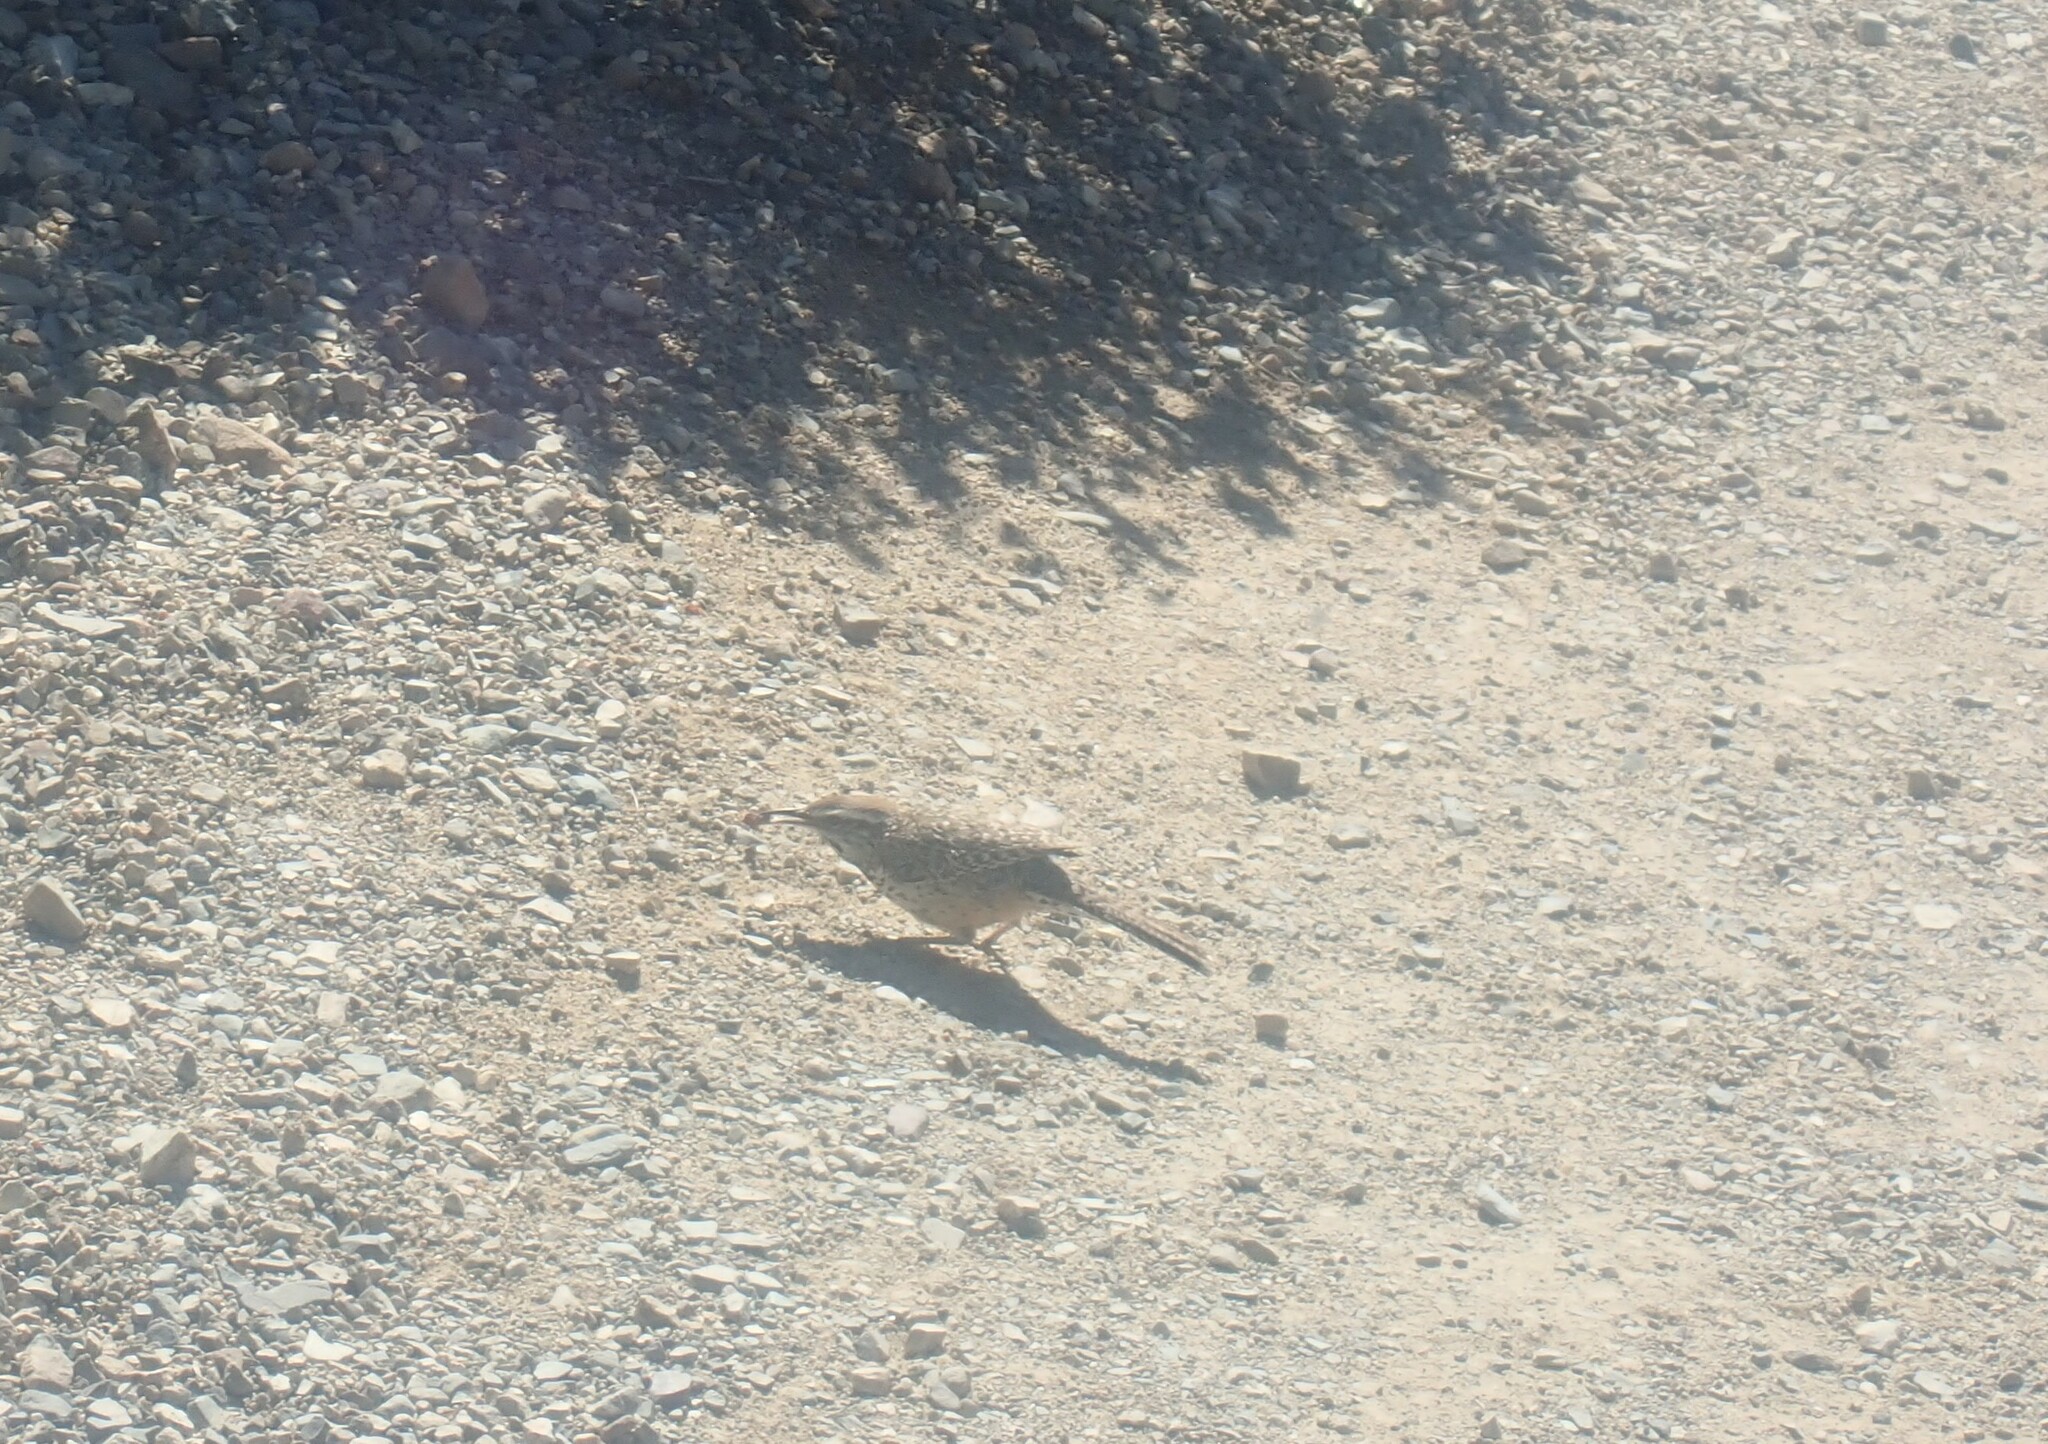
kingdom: Animalia
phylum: Chordata
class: Aves
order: Passeriformes
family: Troglodytidae
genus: Campylorhynchus
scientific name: Campylorhynchus brunneicapillus
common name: Cactus wren
